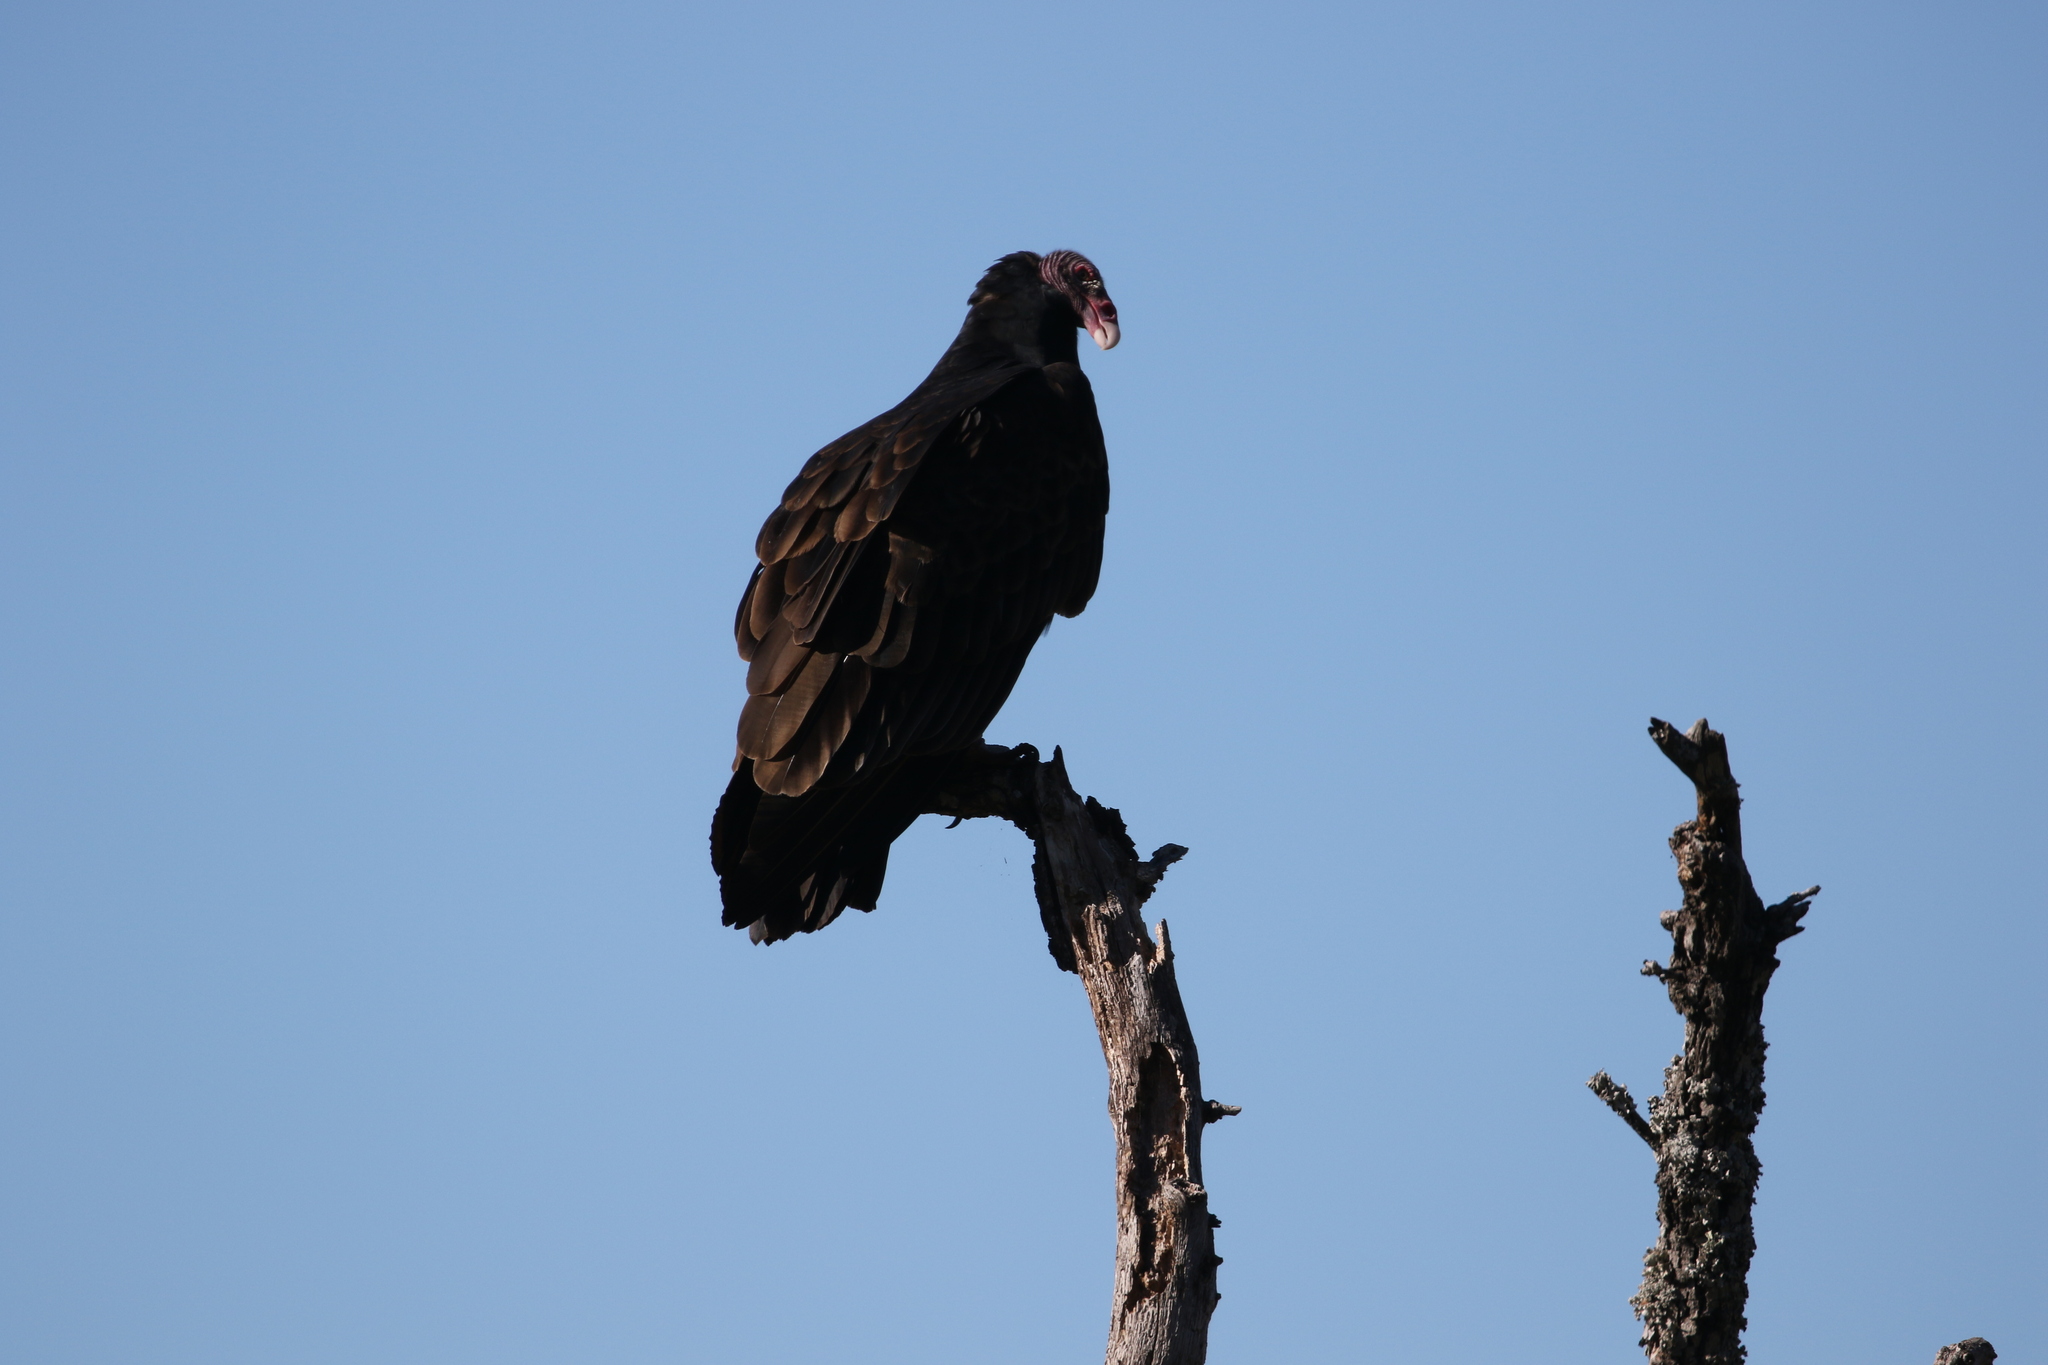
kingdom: Animalia
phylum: Chordata
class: Aves
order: Accipitriformes
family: Cathartidae
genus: Cathartes
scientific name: Cathartes aura
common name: Turkey vulture
